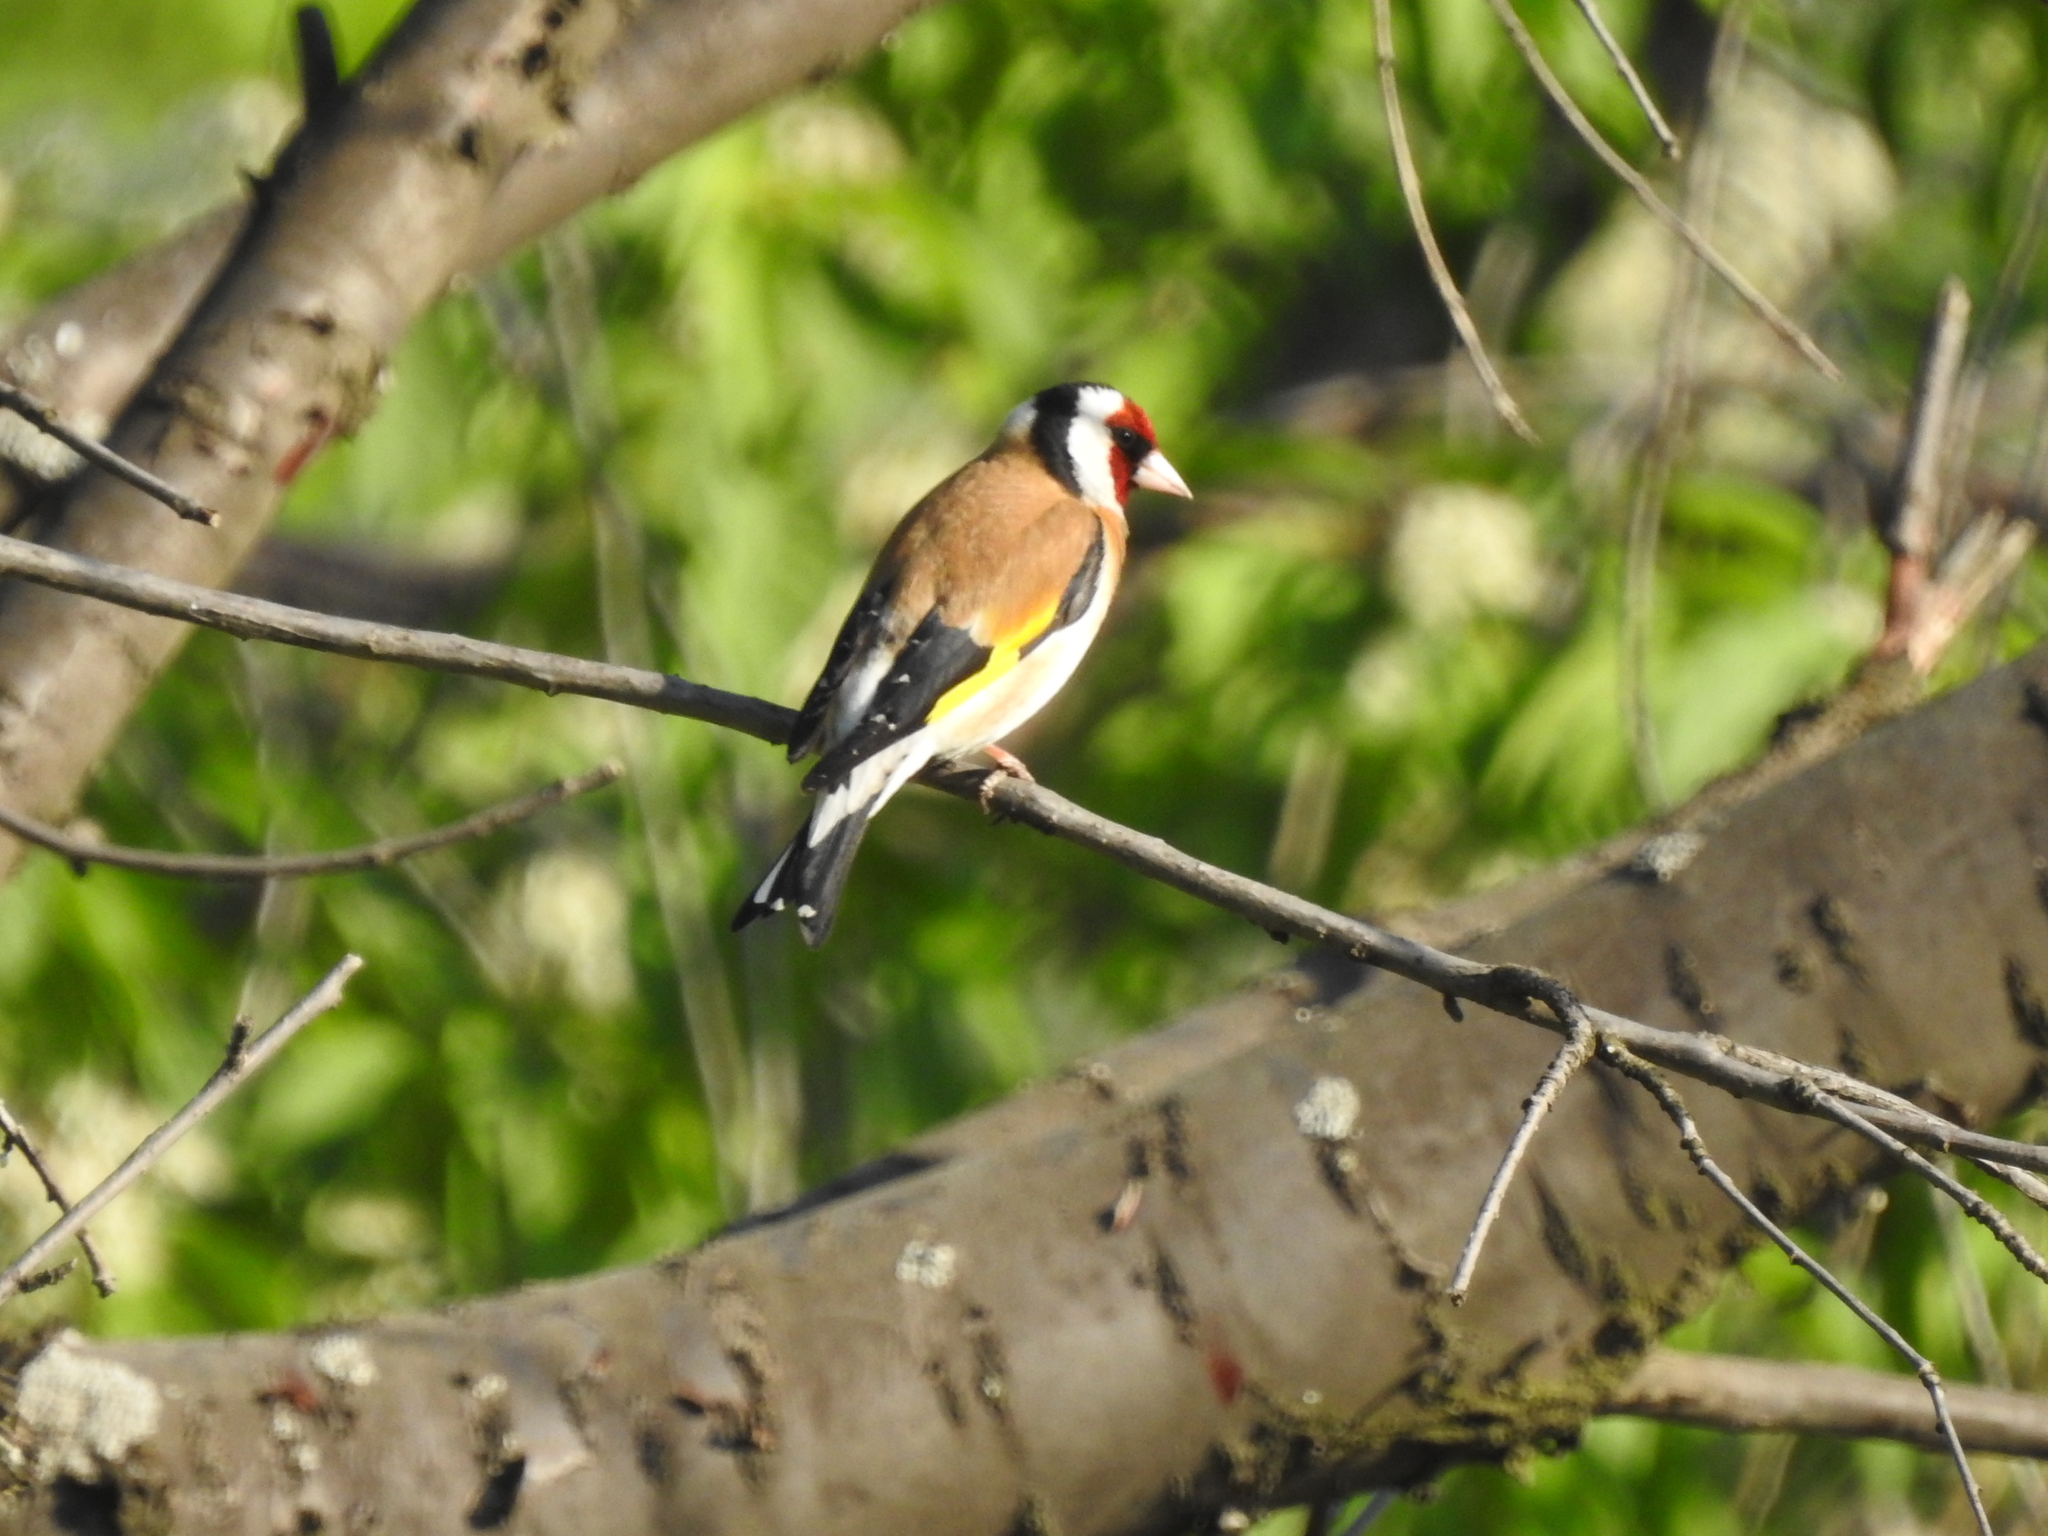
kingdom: Animalia
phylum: Chordata
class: Aves
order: Passeriformes
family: Fringillidae
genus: Carduelis
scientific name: Carduelis carduelis
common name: European goldfinch
